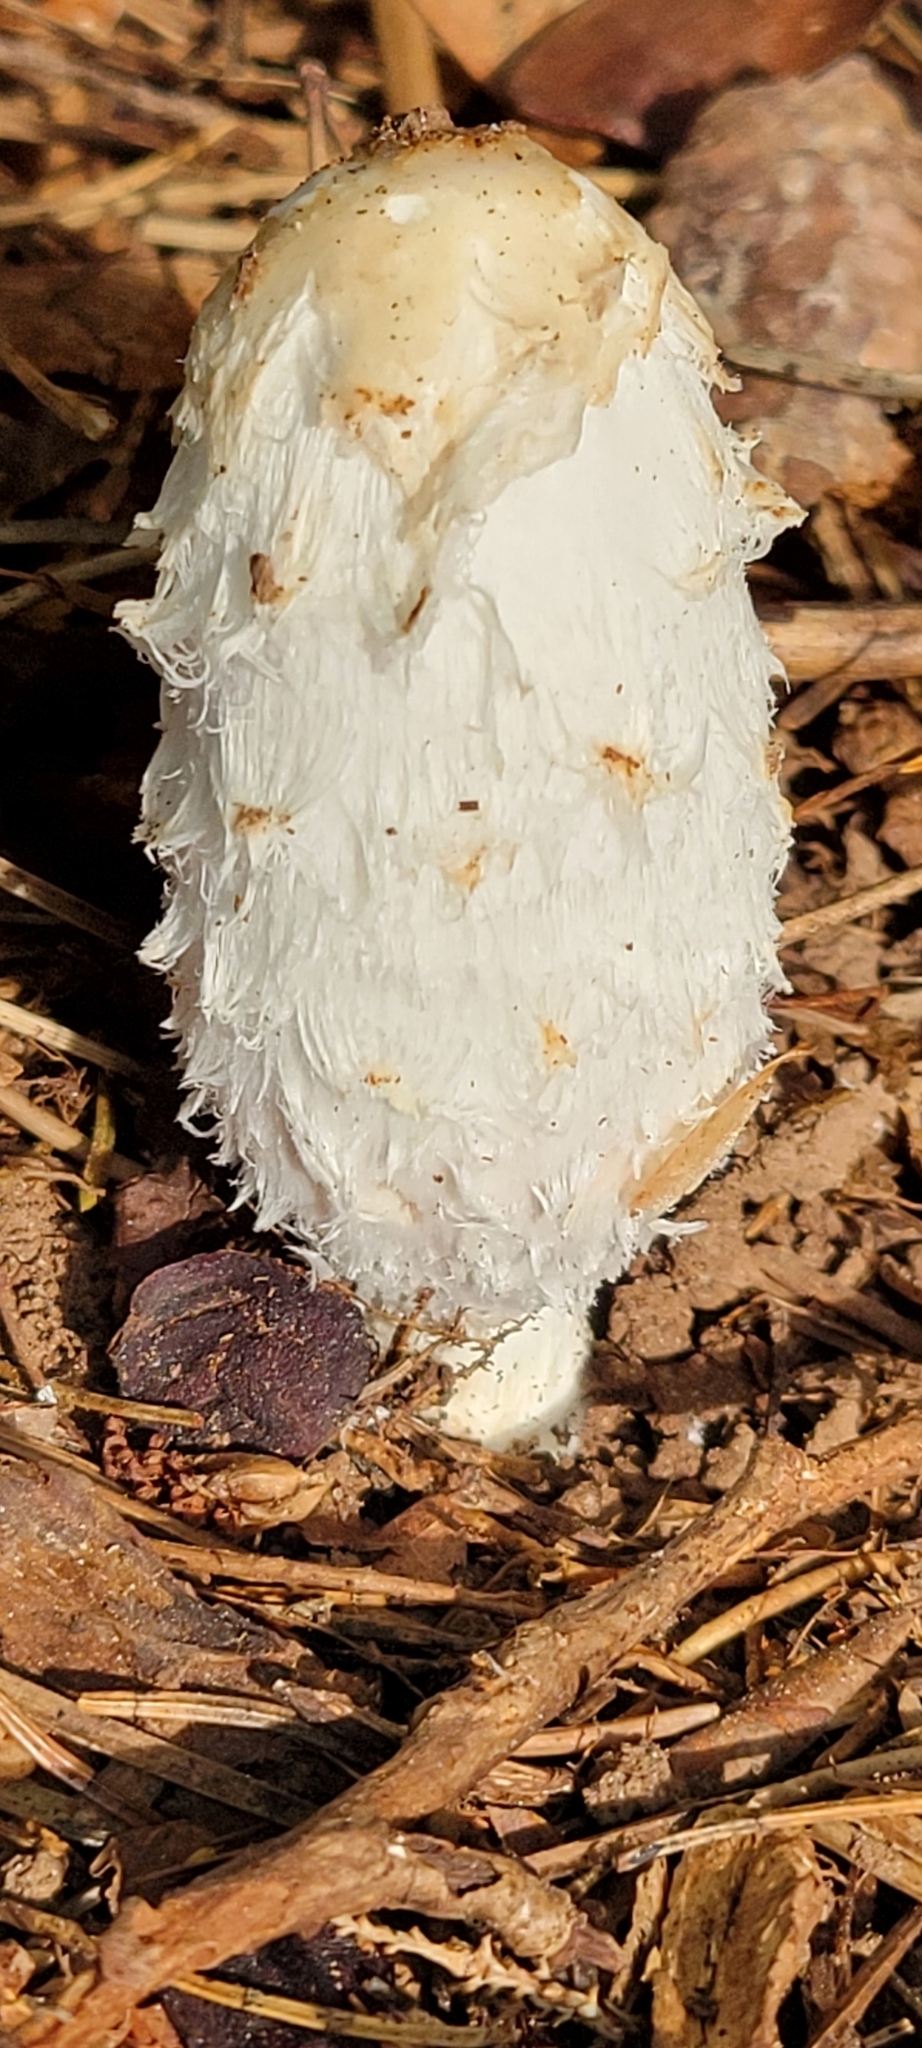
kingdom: Fungi
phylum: Basidiomycota
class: Agaricomycetes
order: Agaricales
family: Agaricaceae
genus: Coprinus
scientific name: Coprinus comatus
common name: Lawyer's wig
